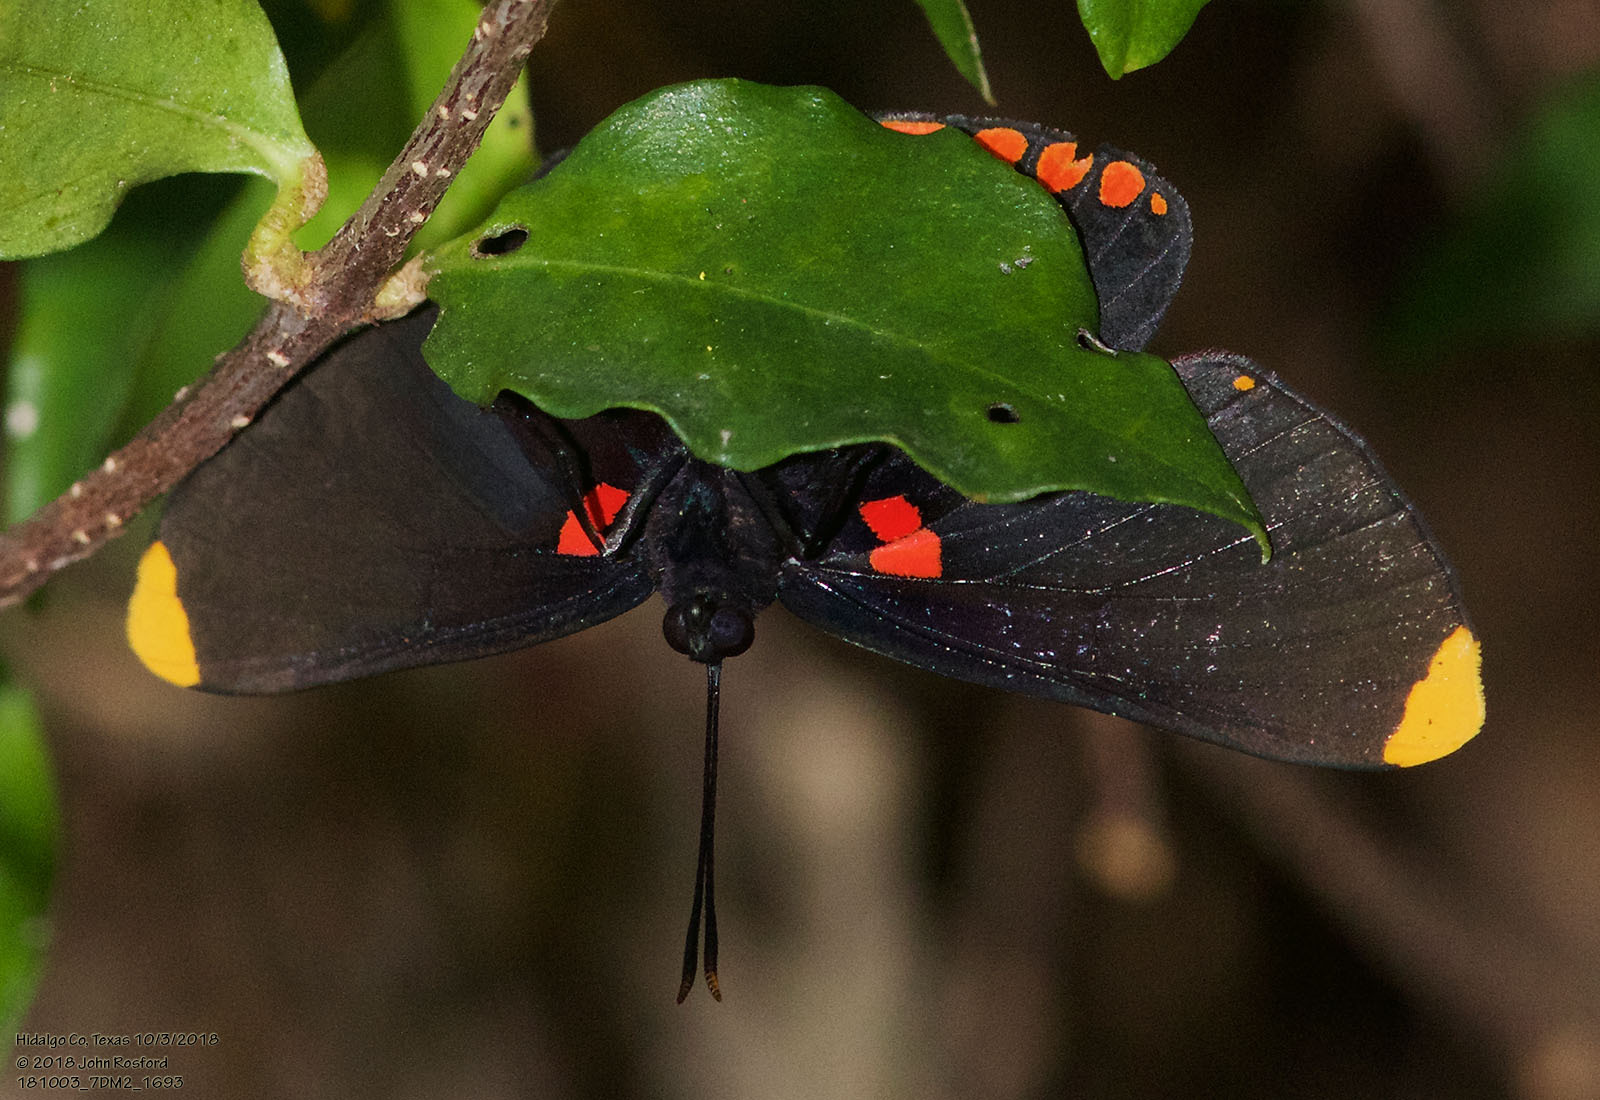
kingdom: Animalia
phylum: Arthropoda
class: Insecta
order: Lepidoptera
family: Lycaenidae
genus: Melanis
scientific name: Melanis pixe
